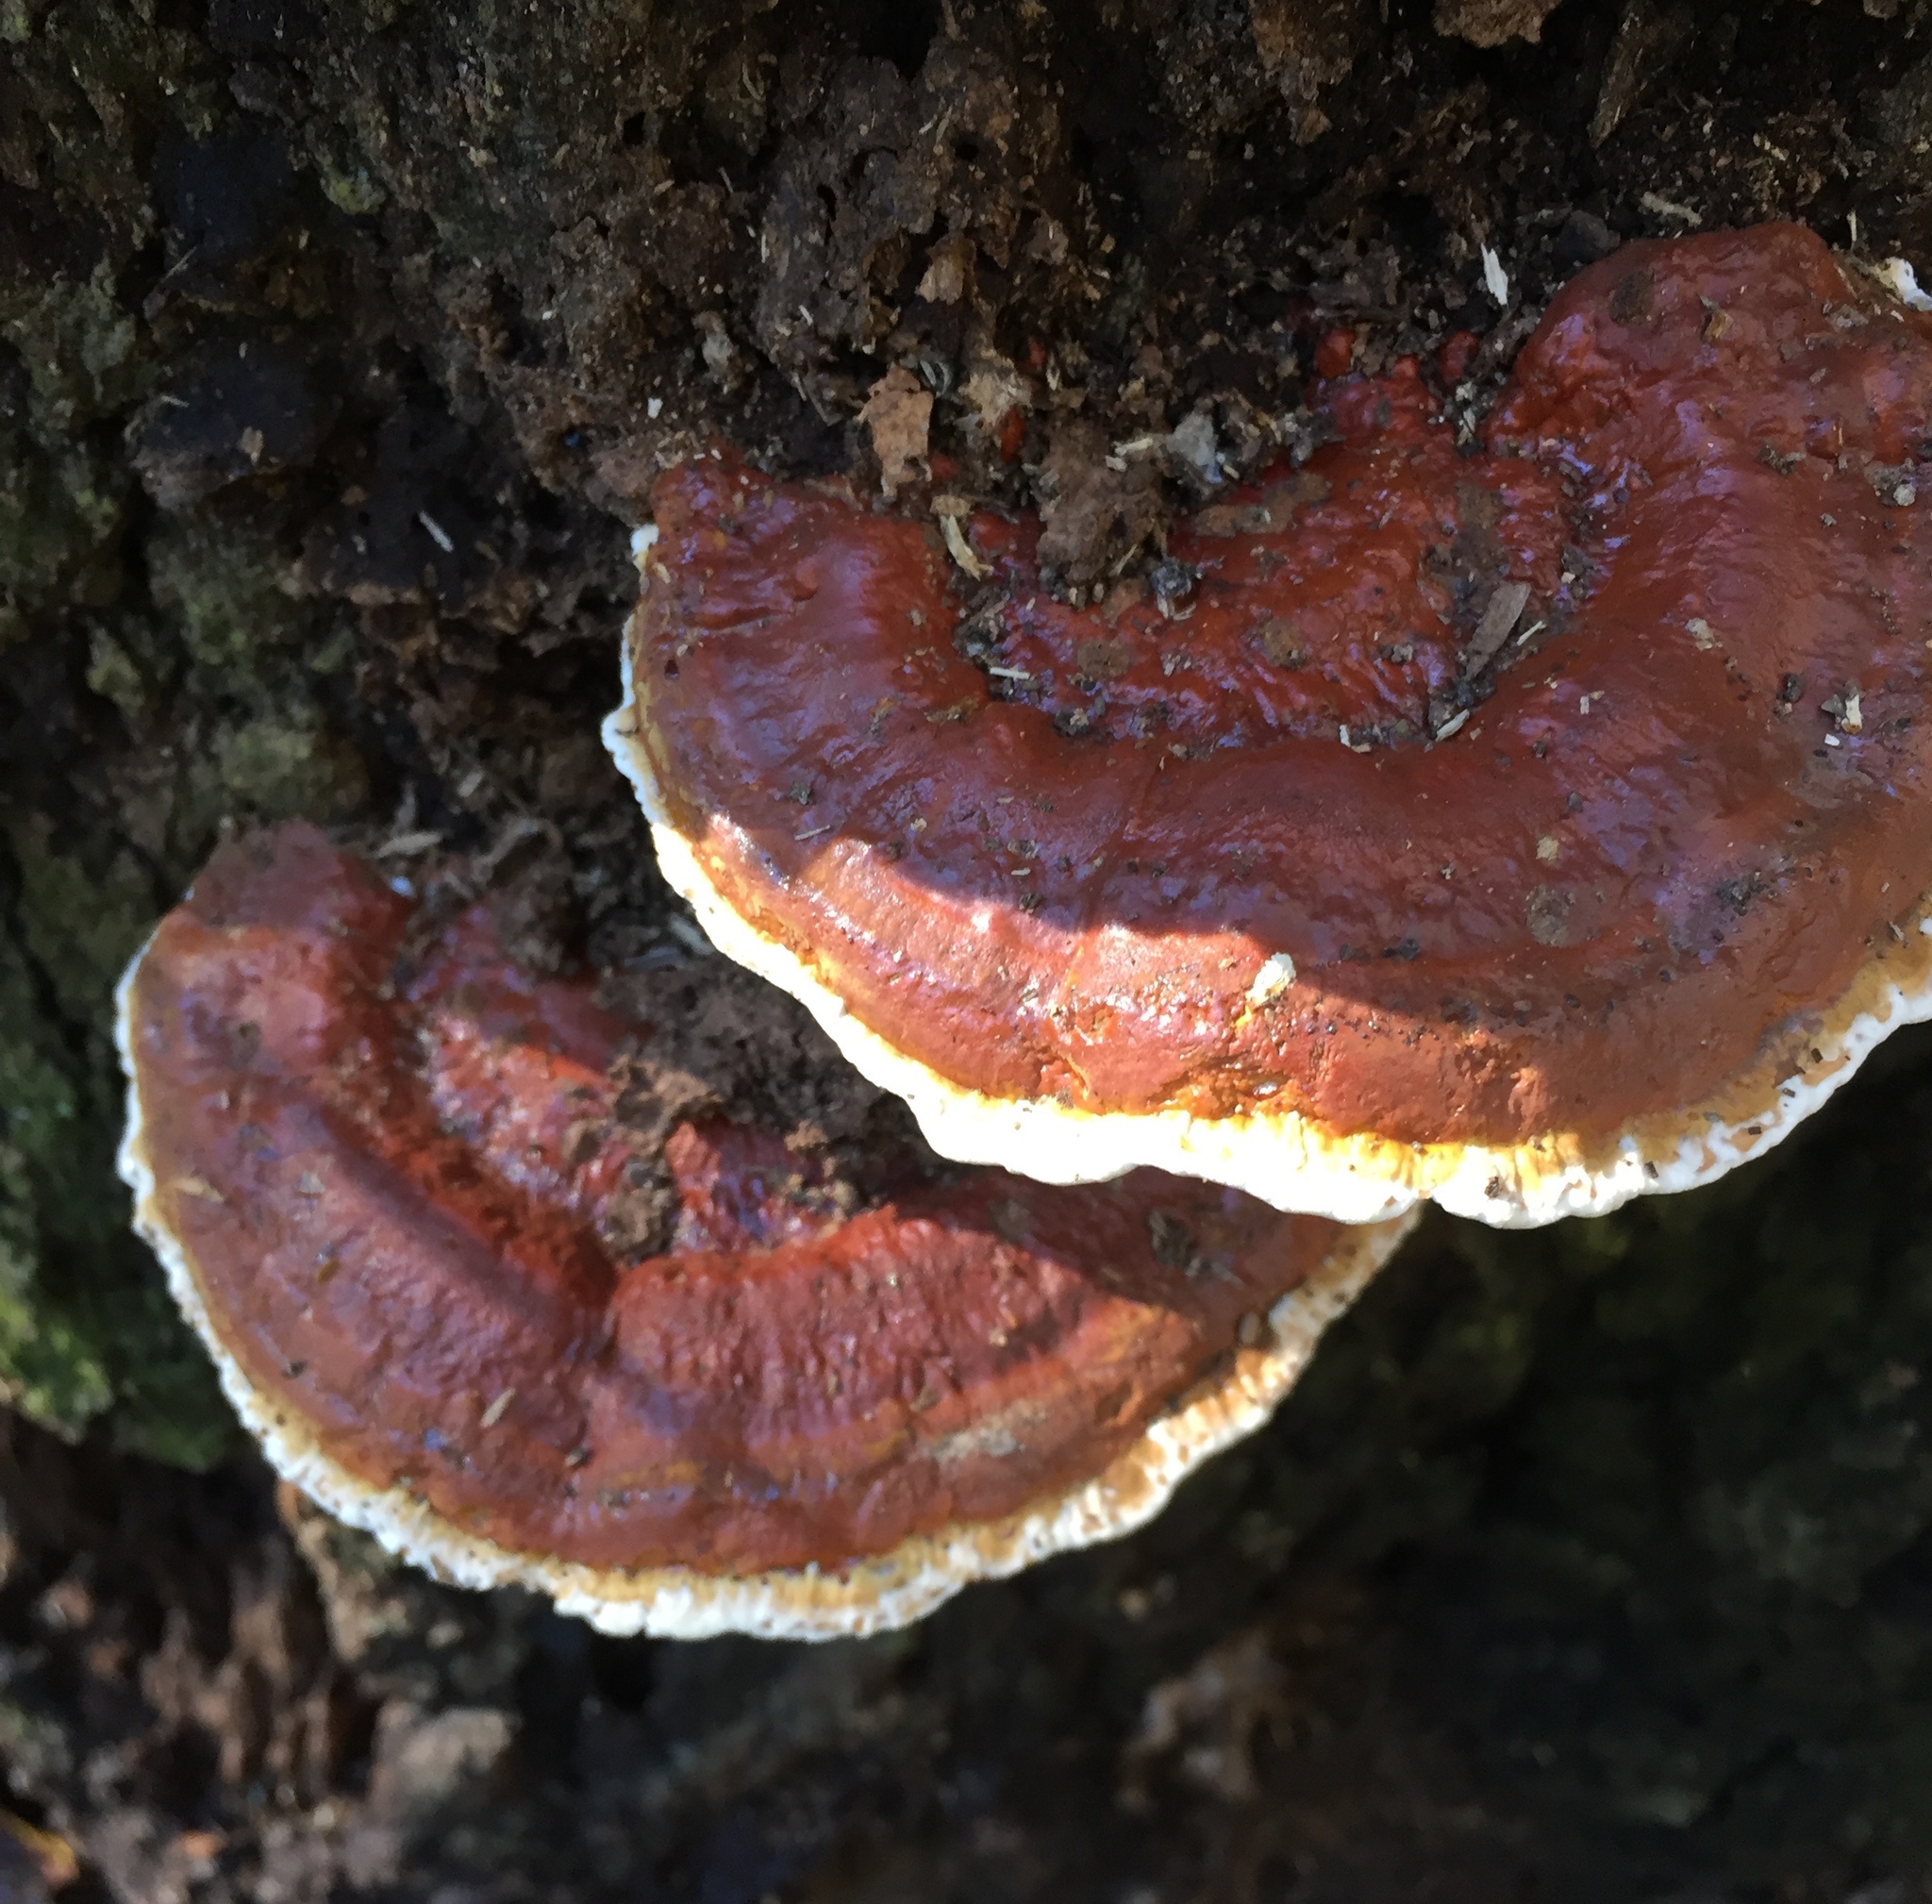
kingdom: Fungi
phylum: Basidiomycota
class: Agaricomycetes
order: Polyporales
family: Polyporaceae
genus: Ganoderma
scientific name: Ganoderma resinaceum
